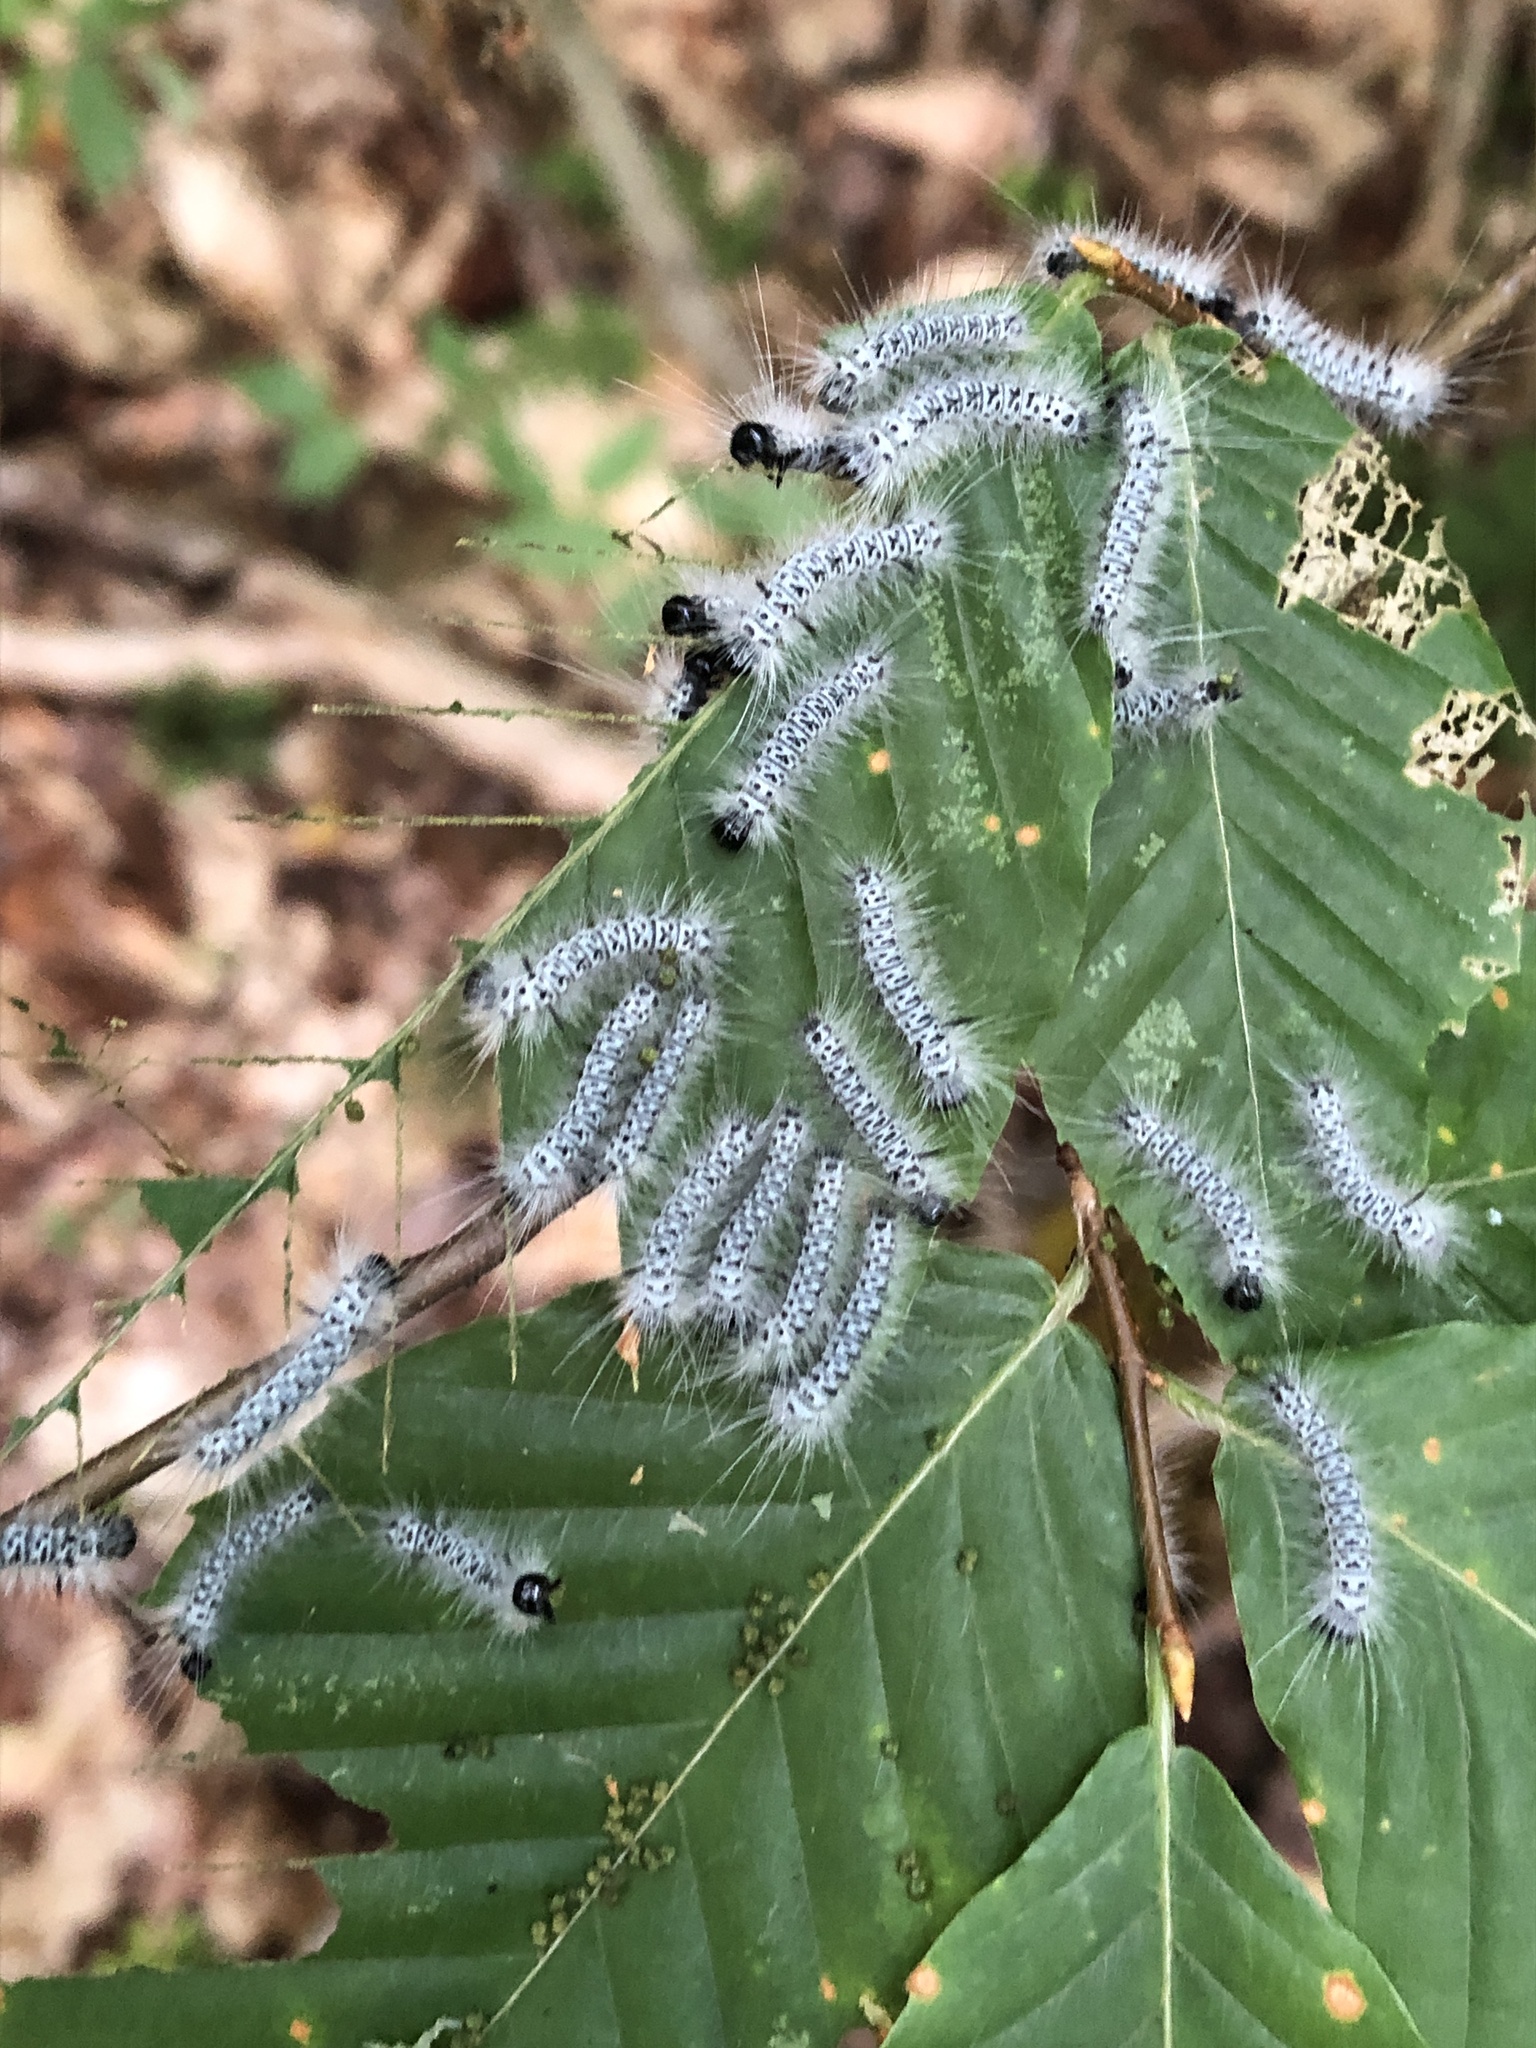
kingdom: Animalia
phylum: Arthropoda
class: Insecta
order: Lepidoptera
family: Erebidae
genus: Lophocampa
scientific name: Lophocampa caryae
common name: Hickory tussock moth
